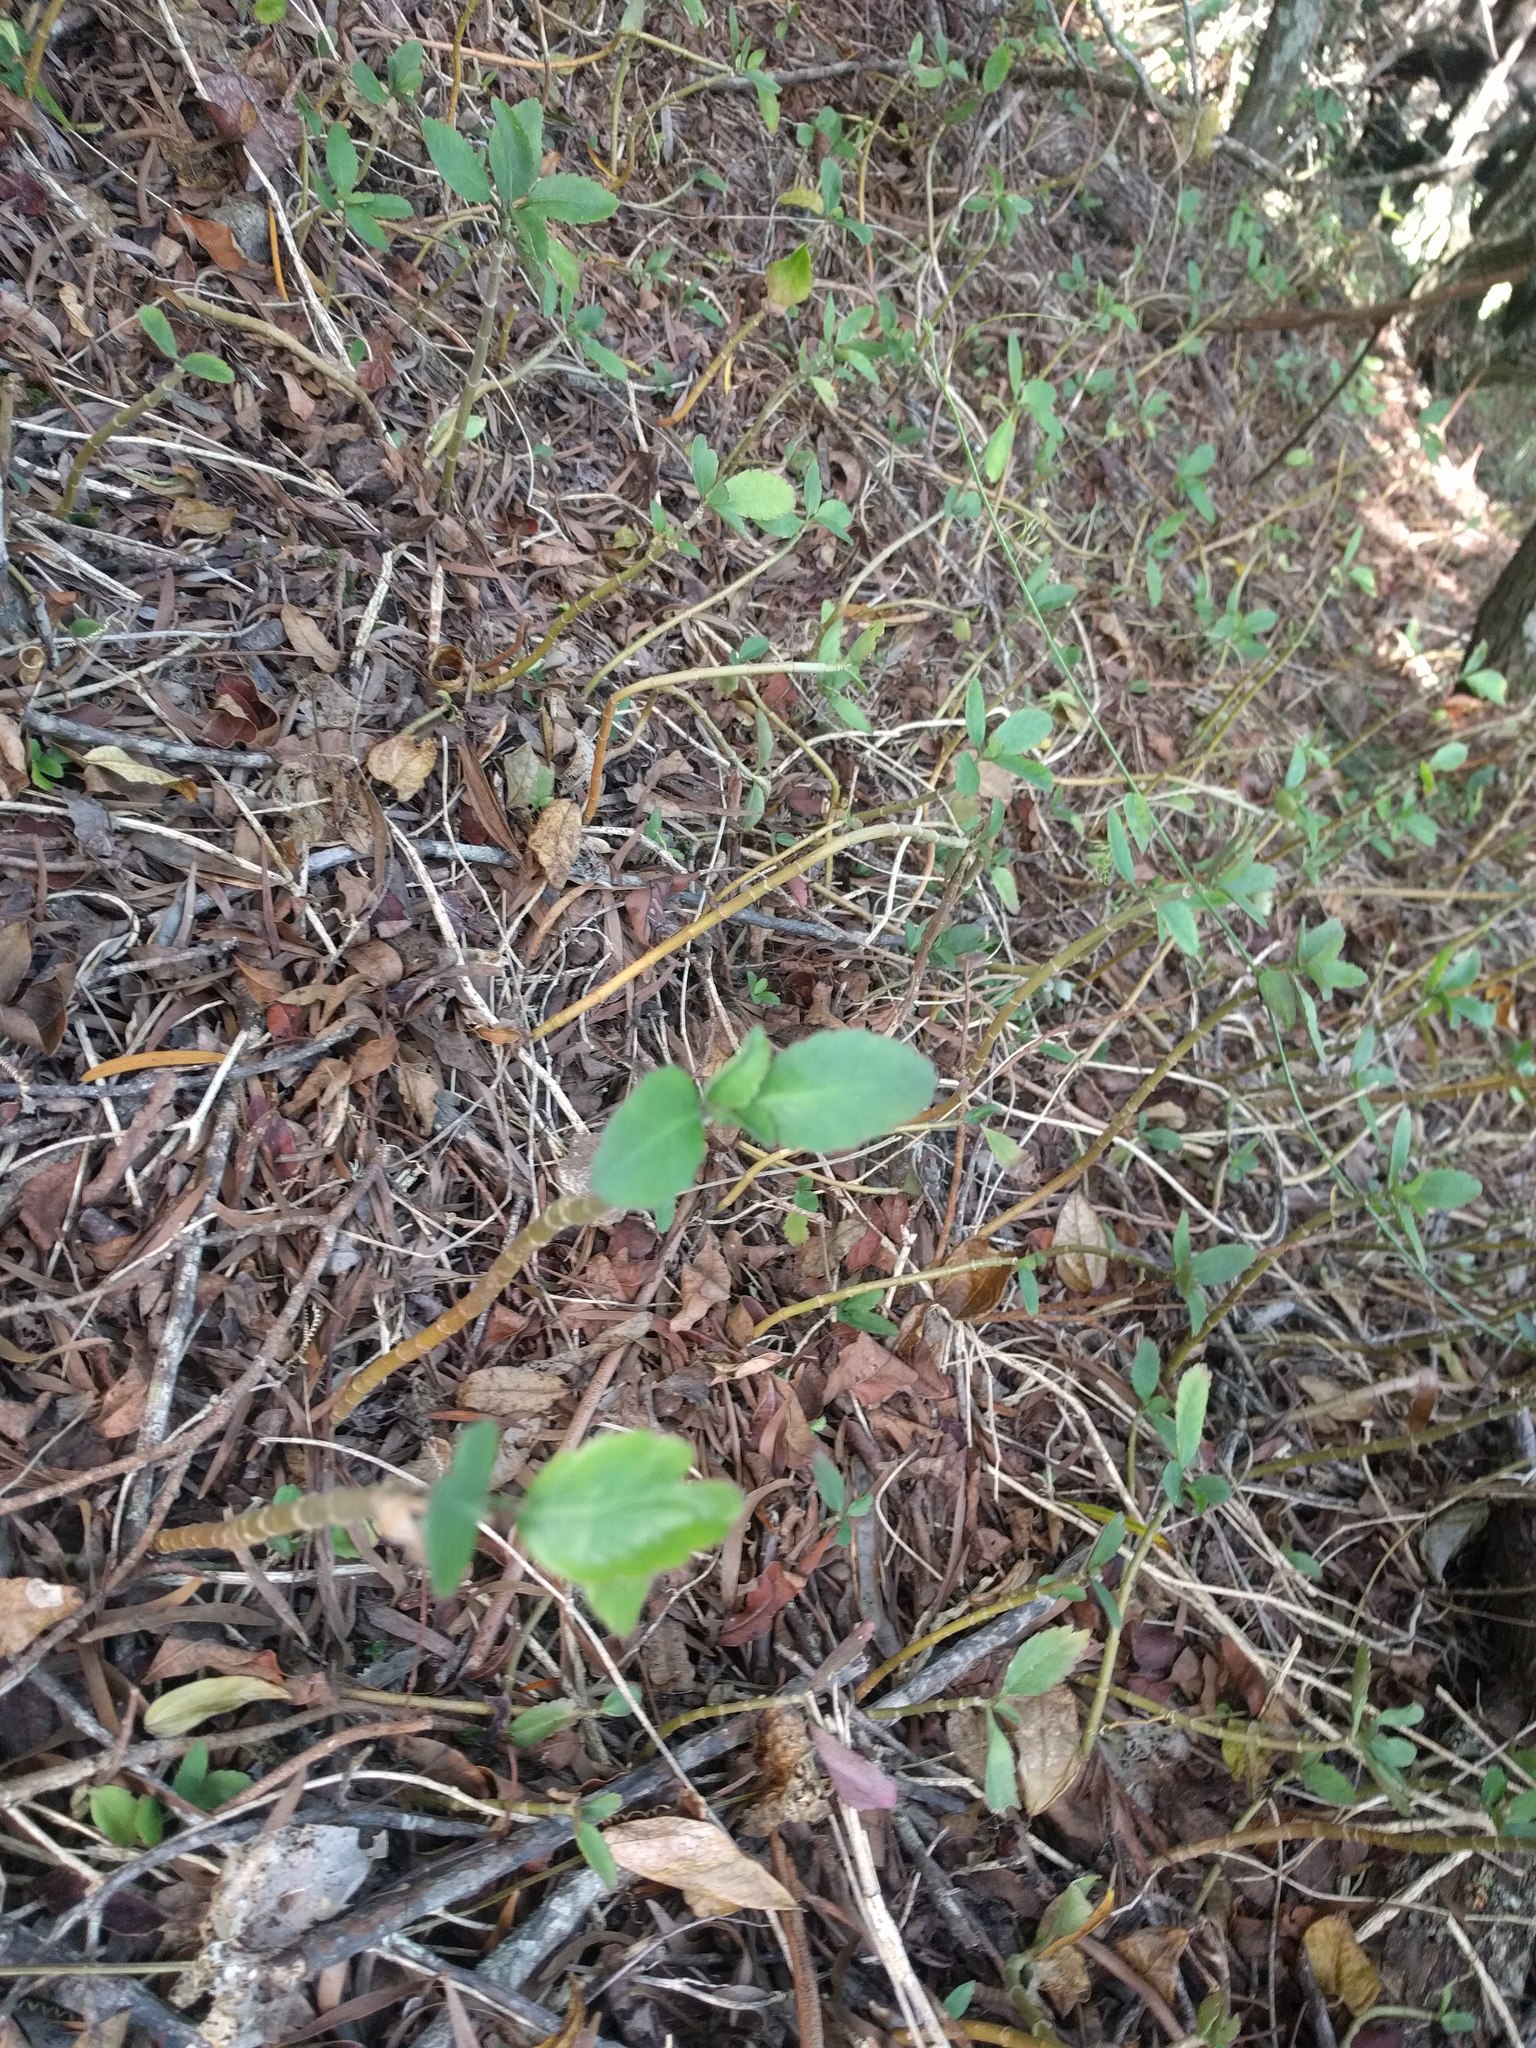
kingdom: Plantae
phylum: Tracheophyta
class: Magnoliopsida
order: Saxifragales
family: Crassulaceae
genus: Kalanchoe
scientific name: Kalanchoe pinnata
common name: Cathedral bells
